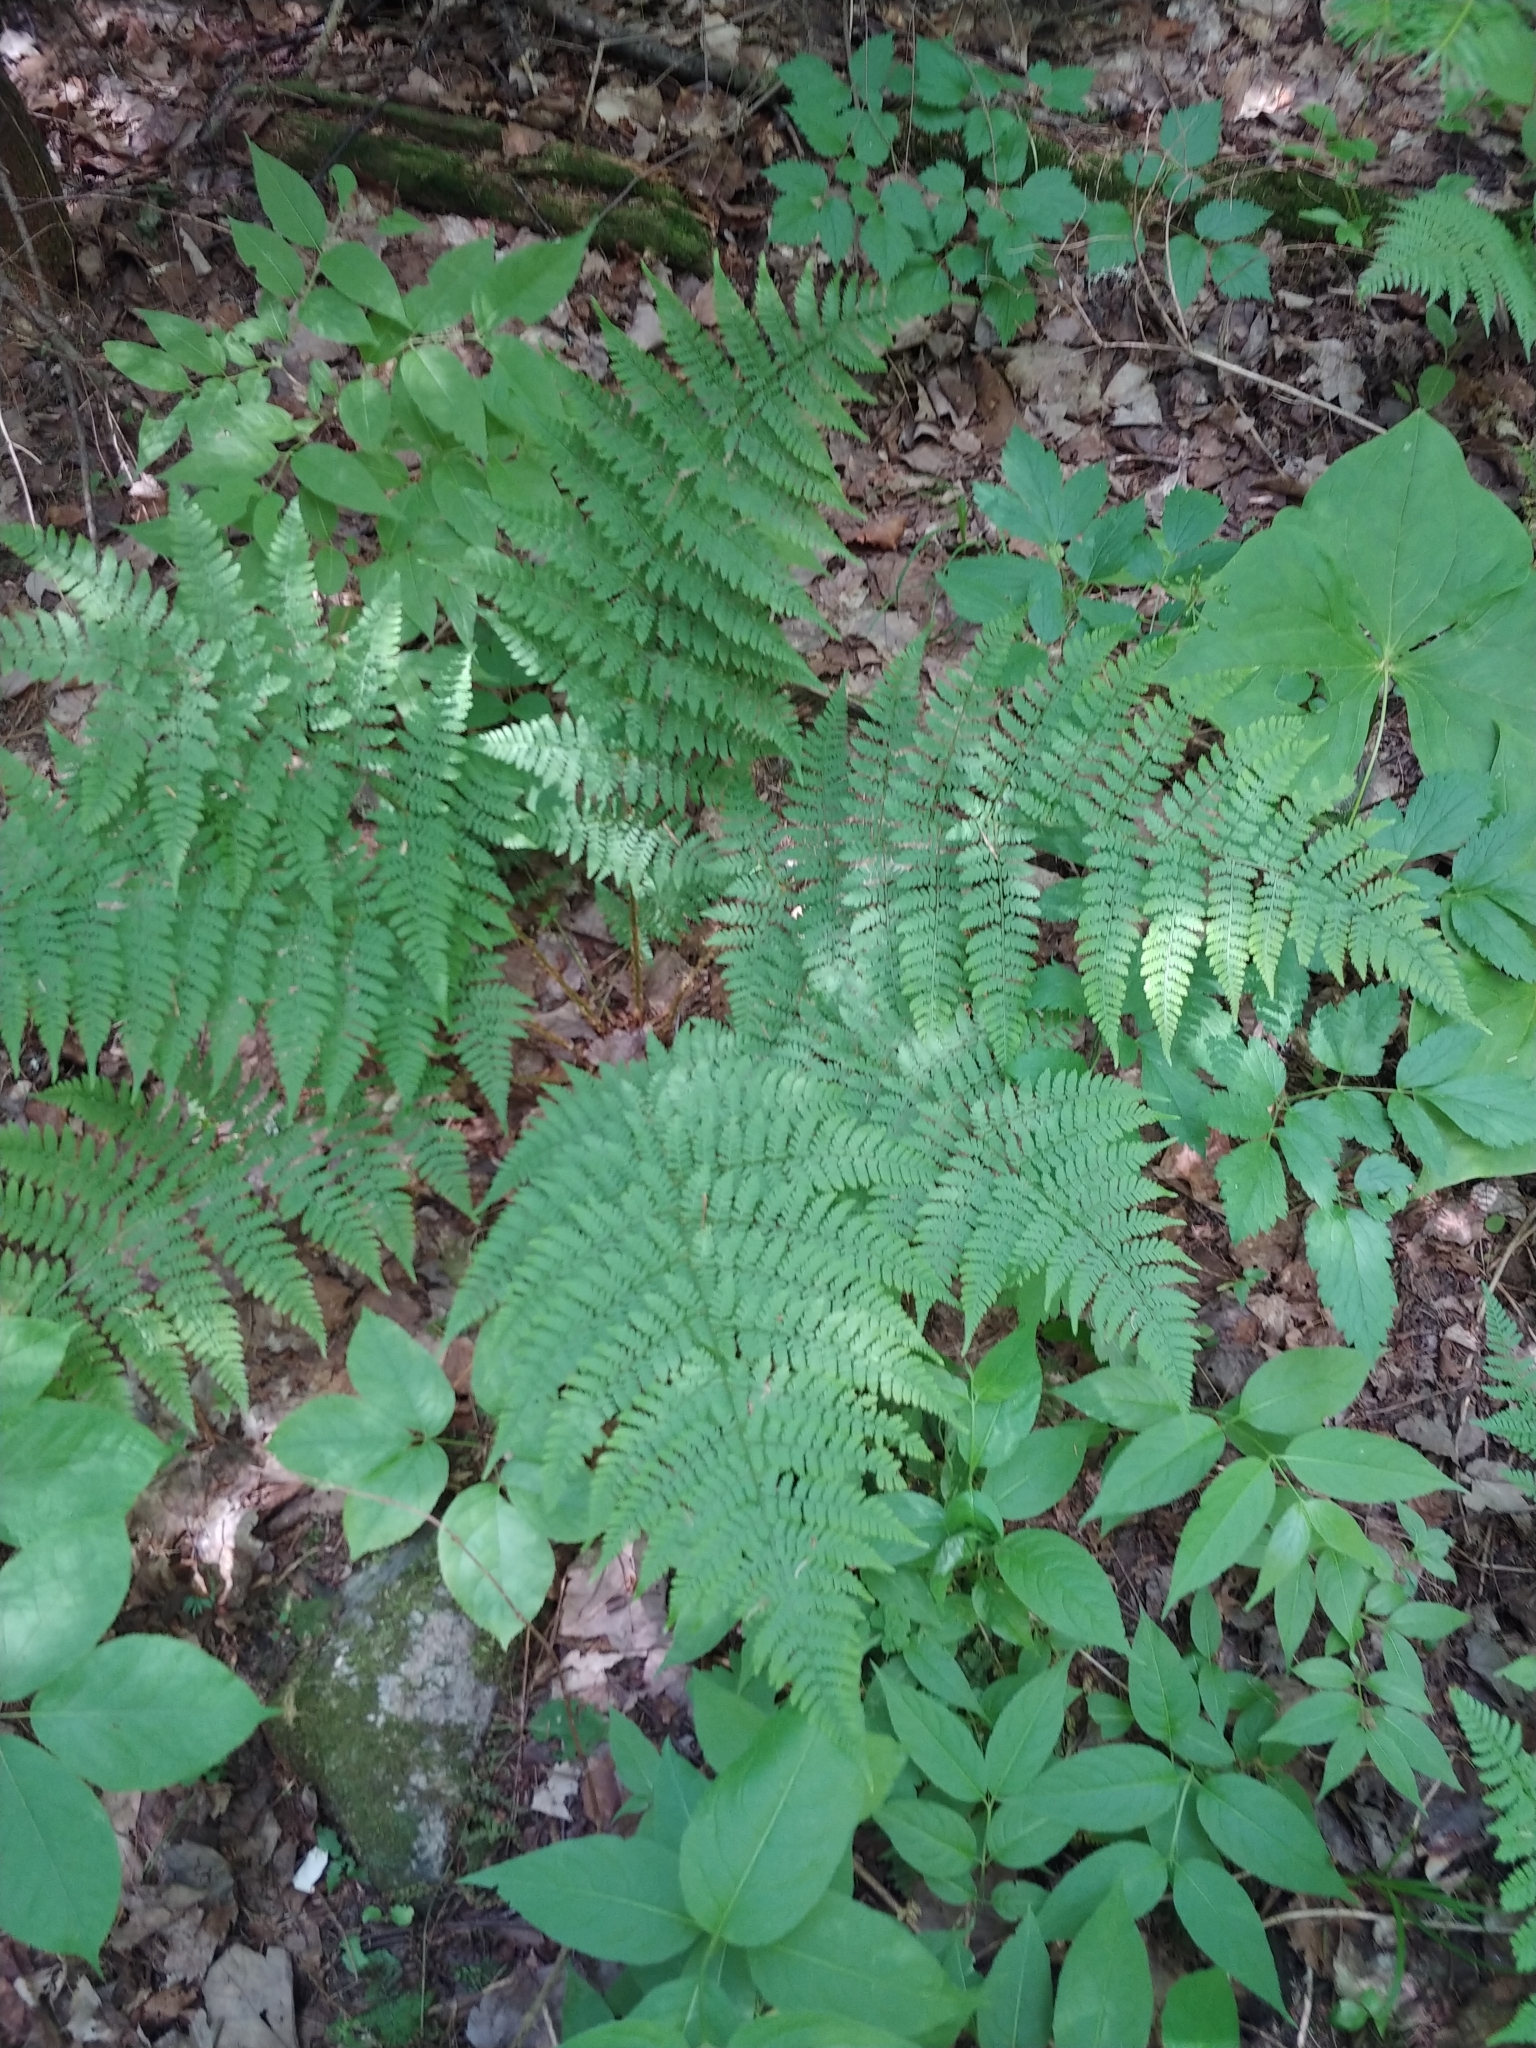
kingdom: Plantae
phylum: Tracheophyta
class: Polypodiopsida
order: Polypodiales
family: Dryopteridaceae
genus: Dryopteris
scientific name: Dryopteris intermedia
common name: Evergreen wood fern
